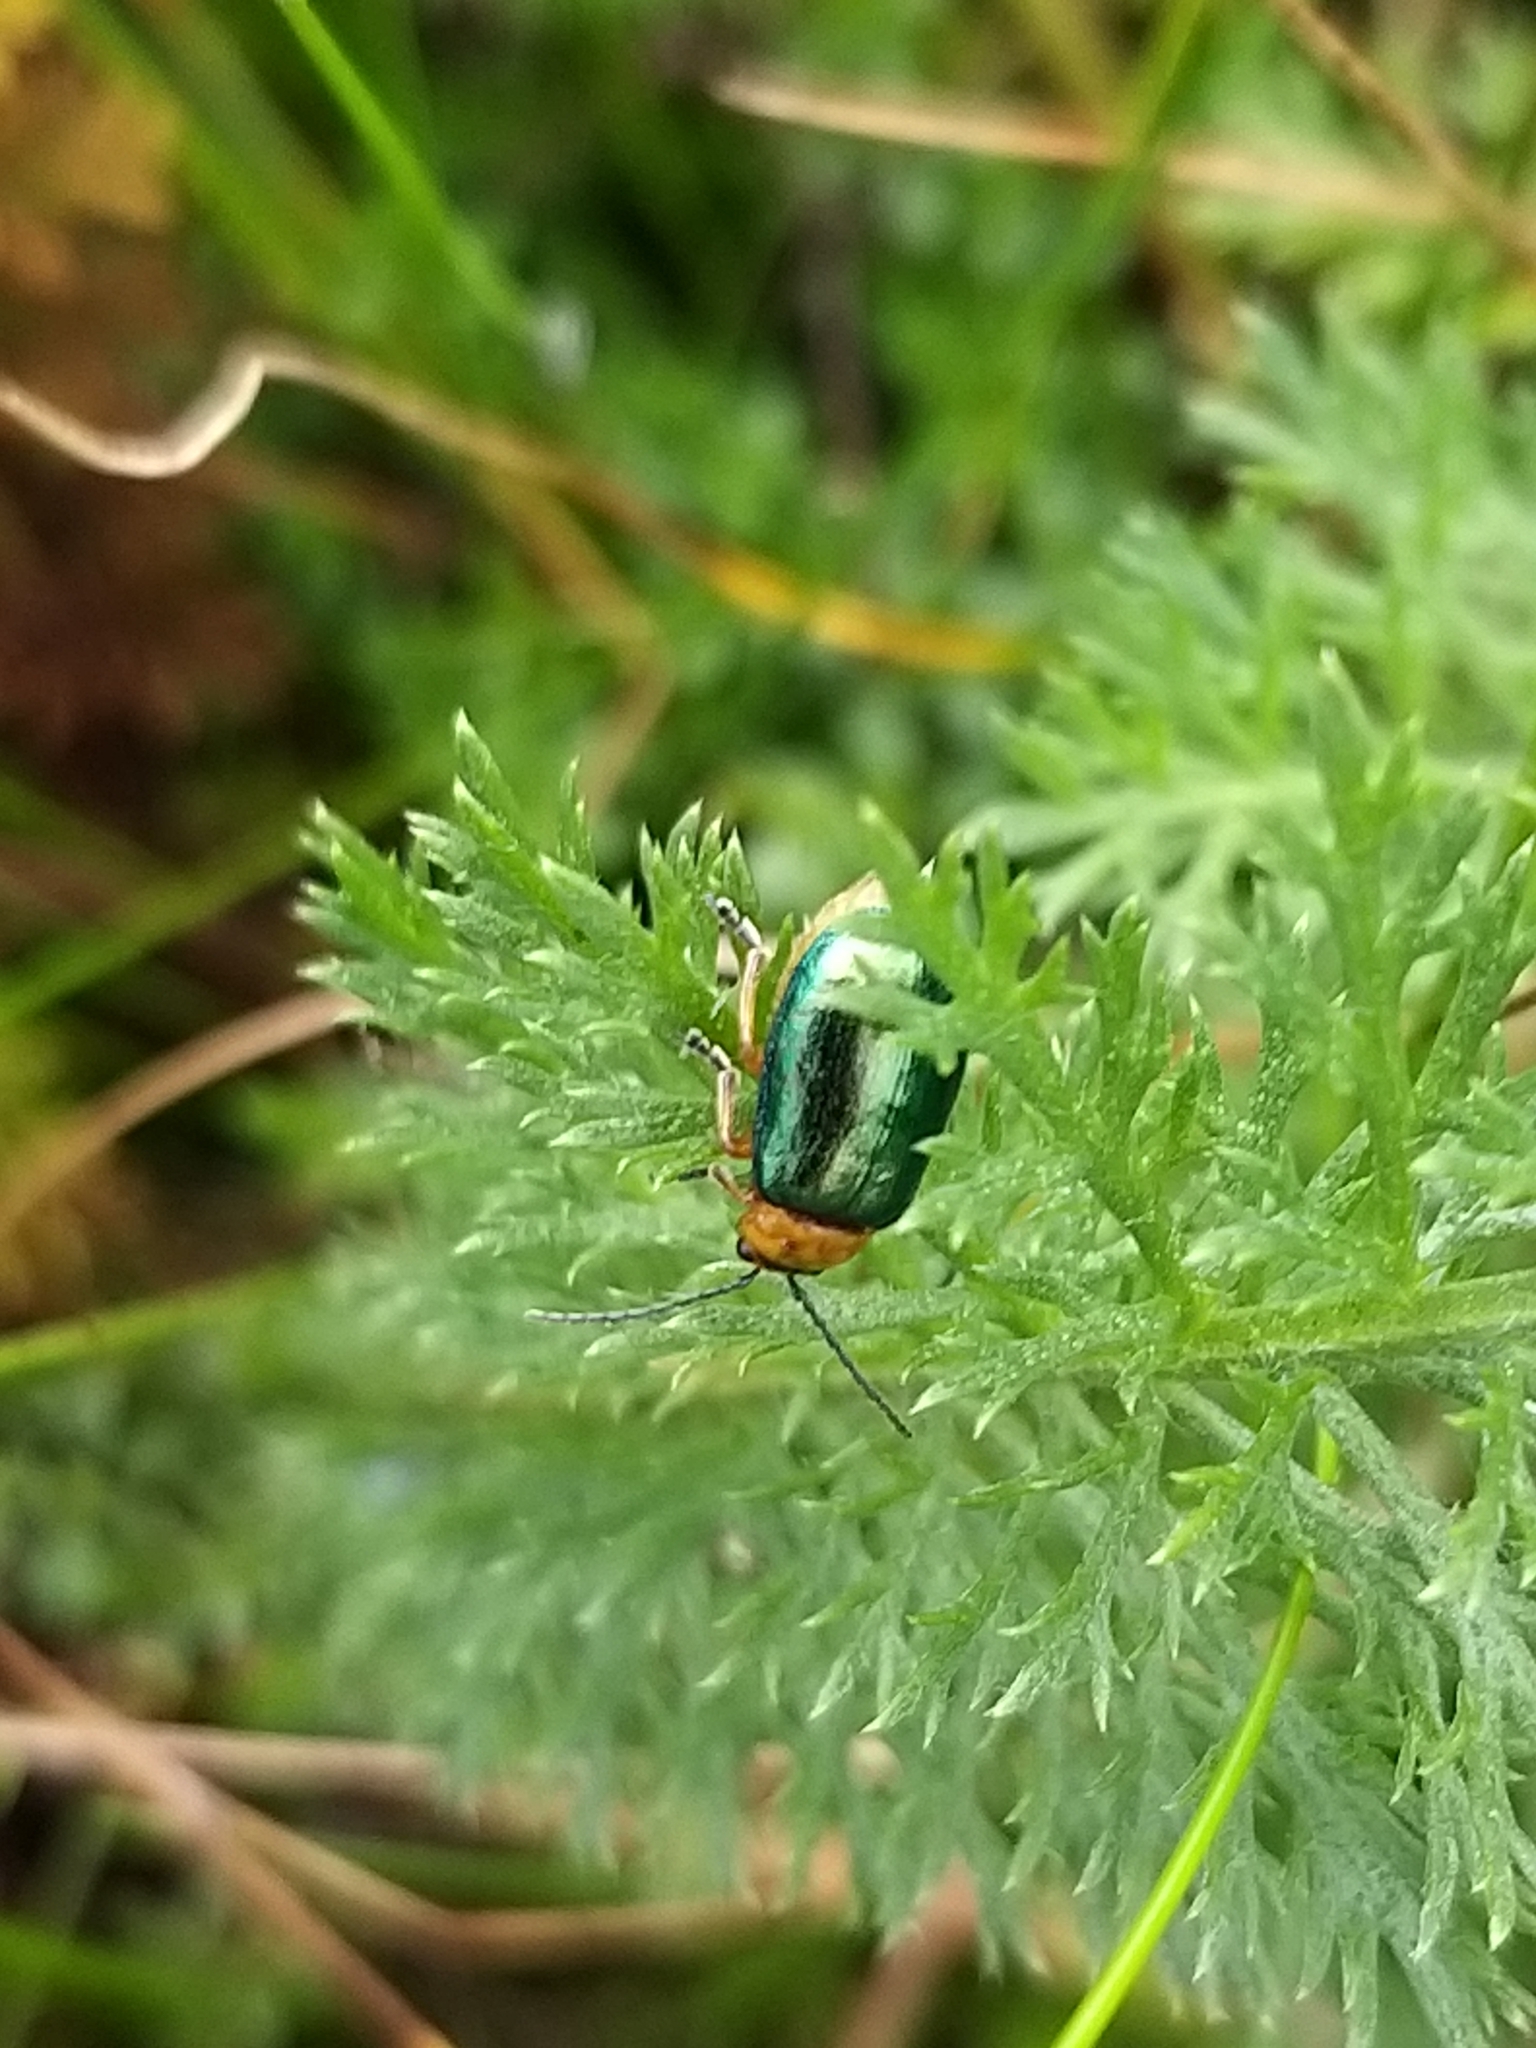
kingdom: Animalia
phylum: Arthropoda
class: Insecta
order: Coleoptera
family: Chrysomelidae
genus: Sermylassa
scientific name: Sermylassa halensis
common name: Leaf beetle
